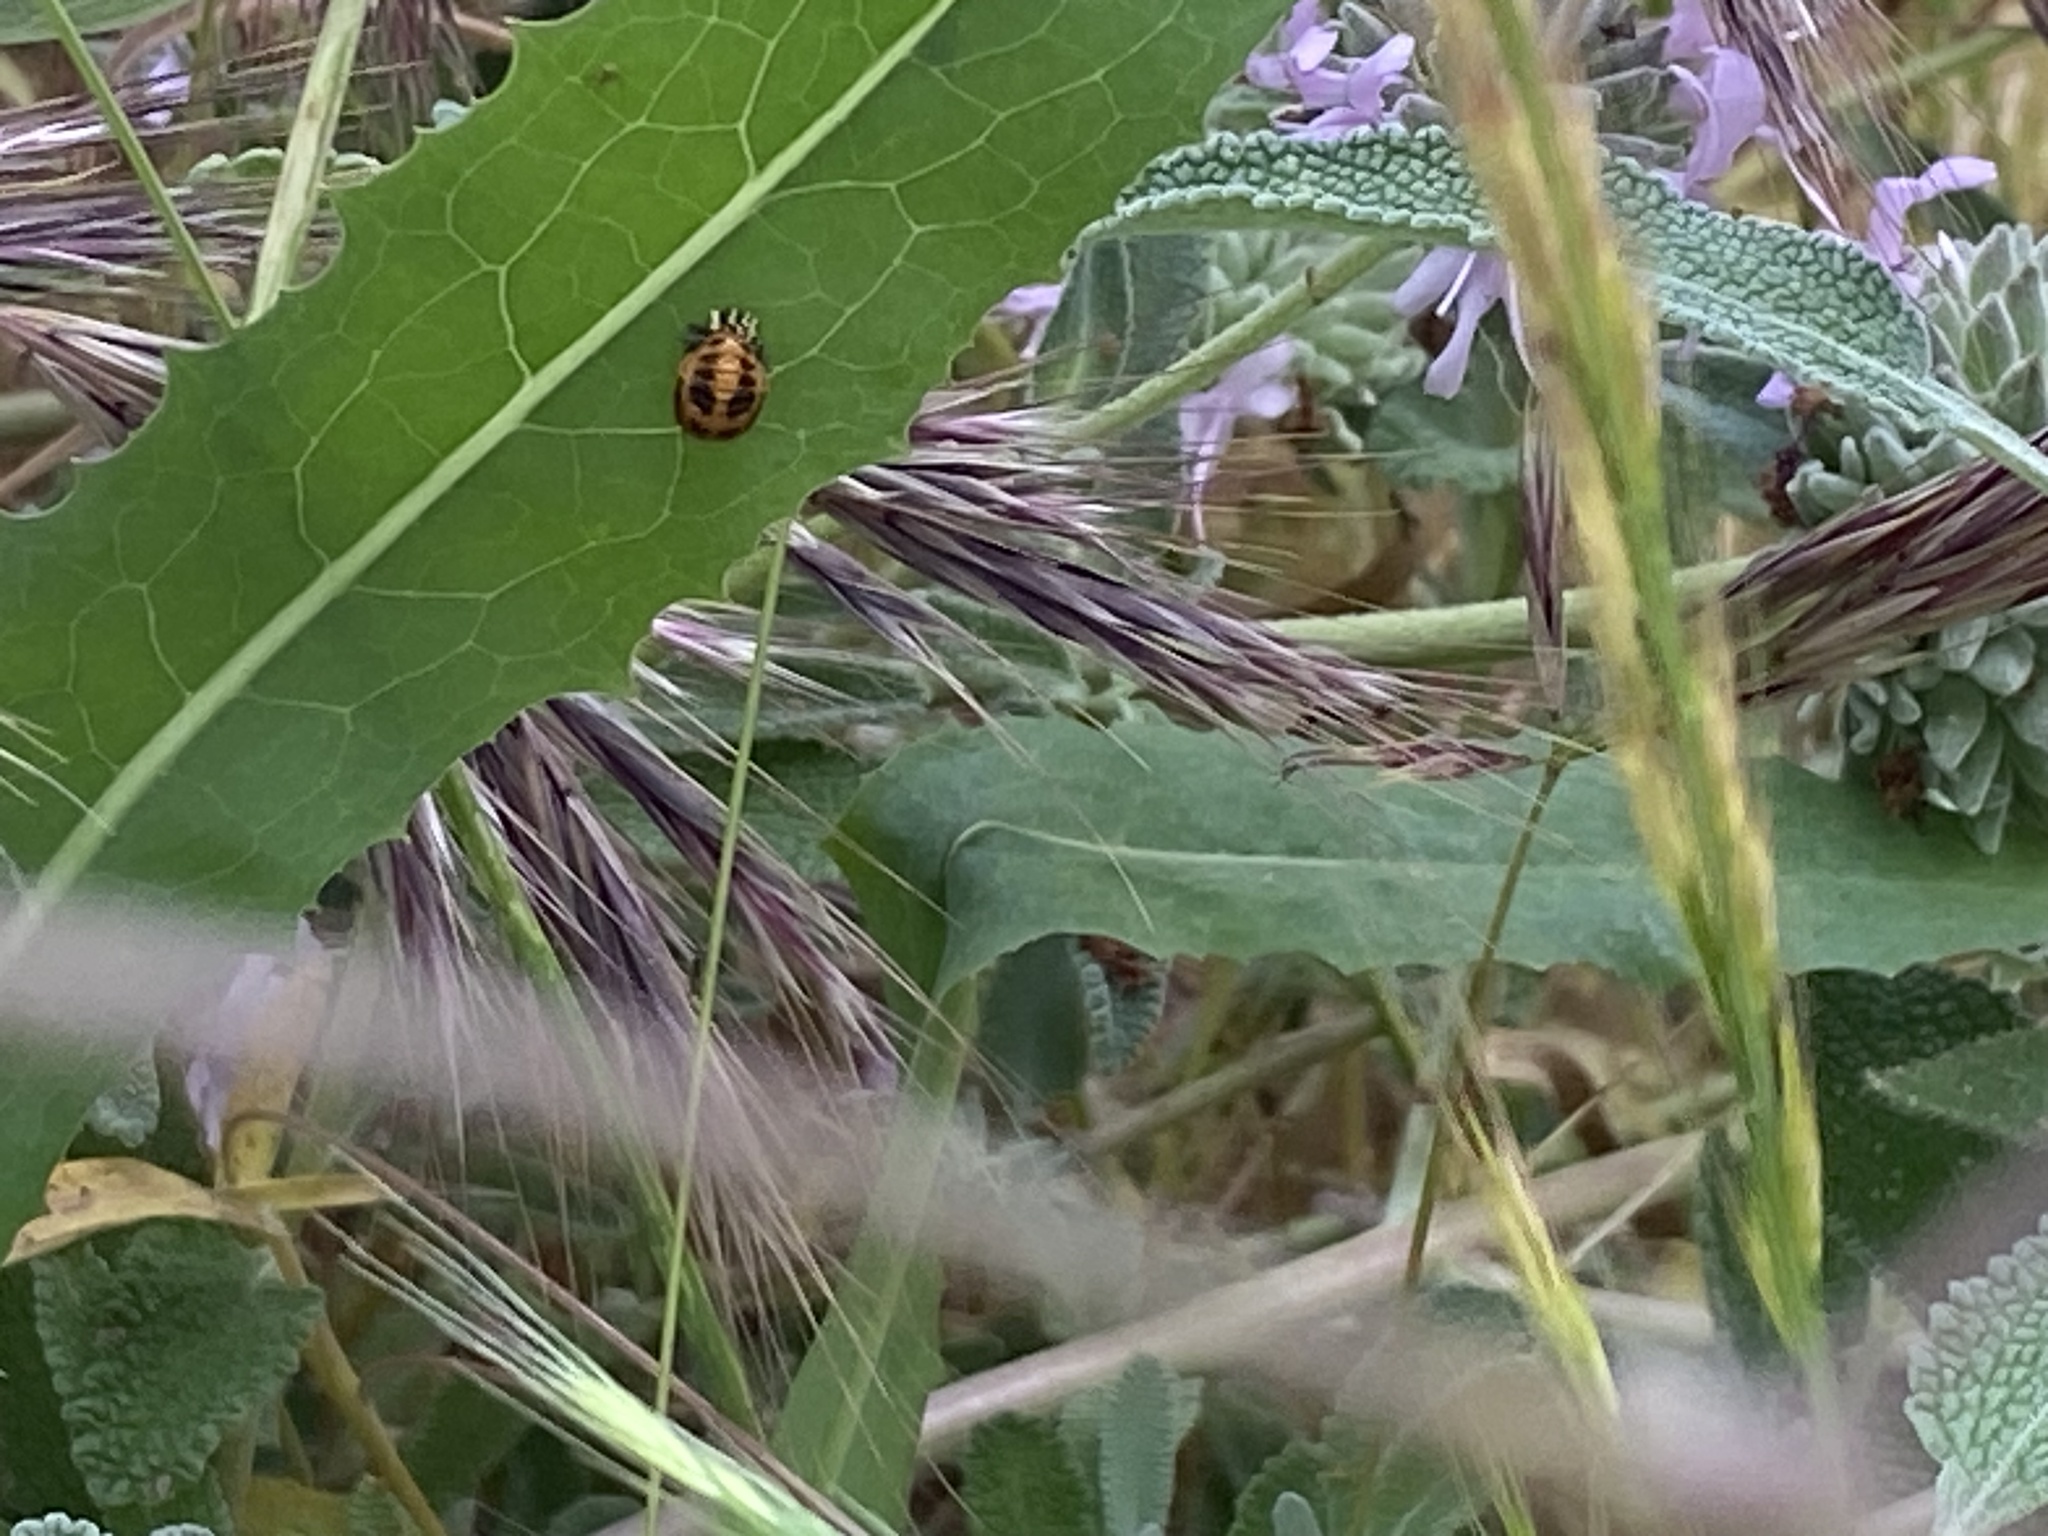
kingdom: Animalia
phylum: Arthropoda
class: Insecta
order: Coleoptera
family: Coccinellidae
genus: Harmonia
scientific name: Harmonia axyridis
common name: Harlequin ladybird
